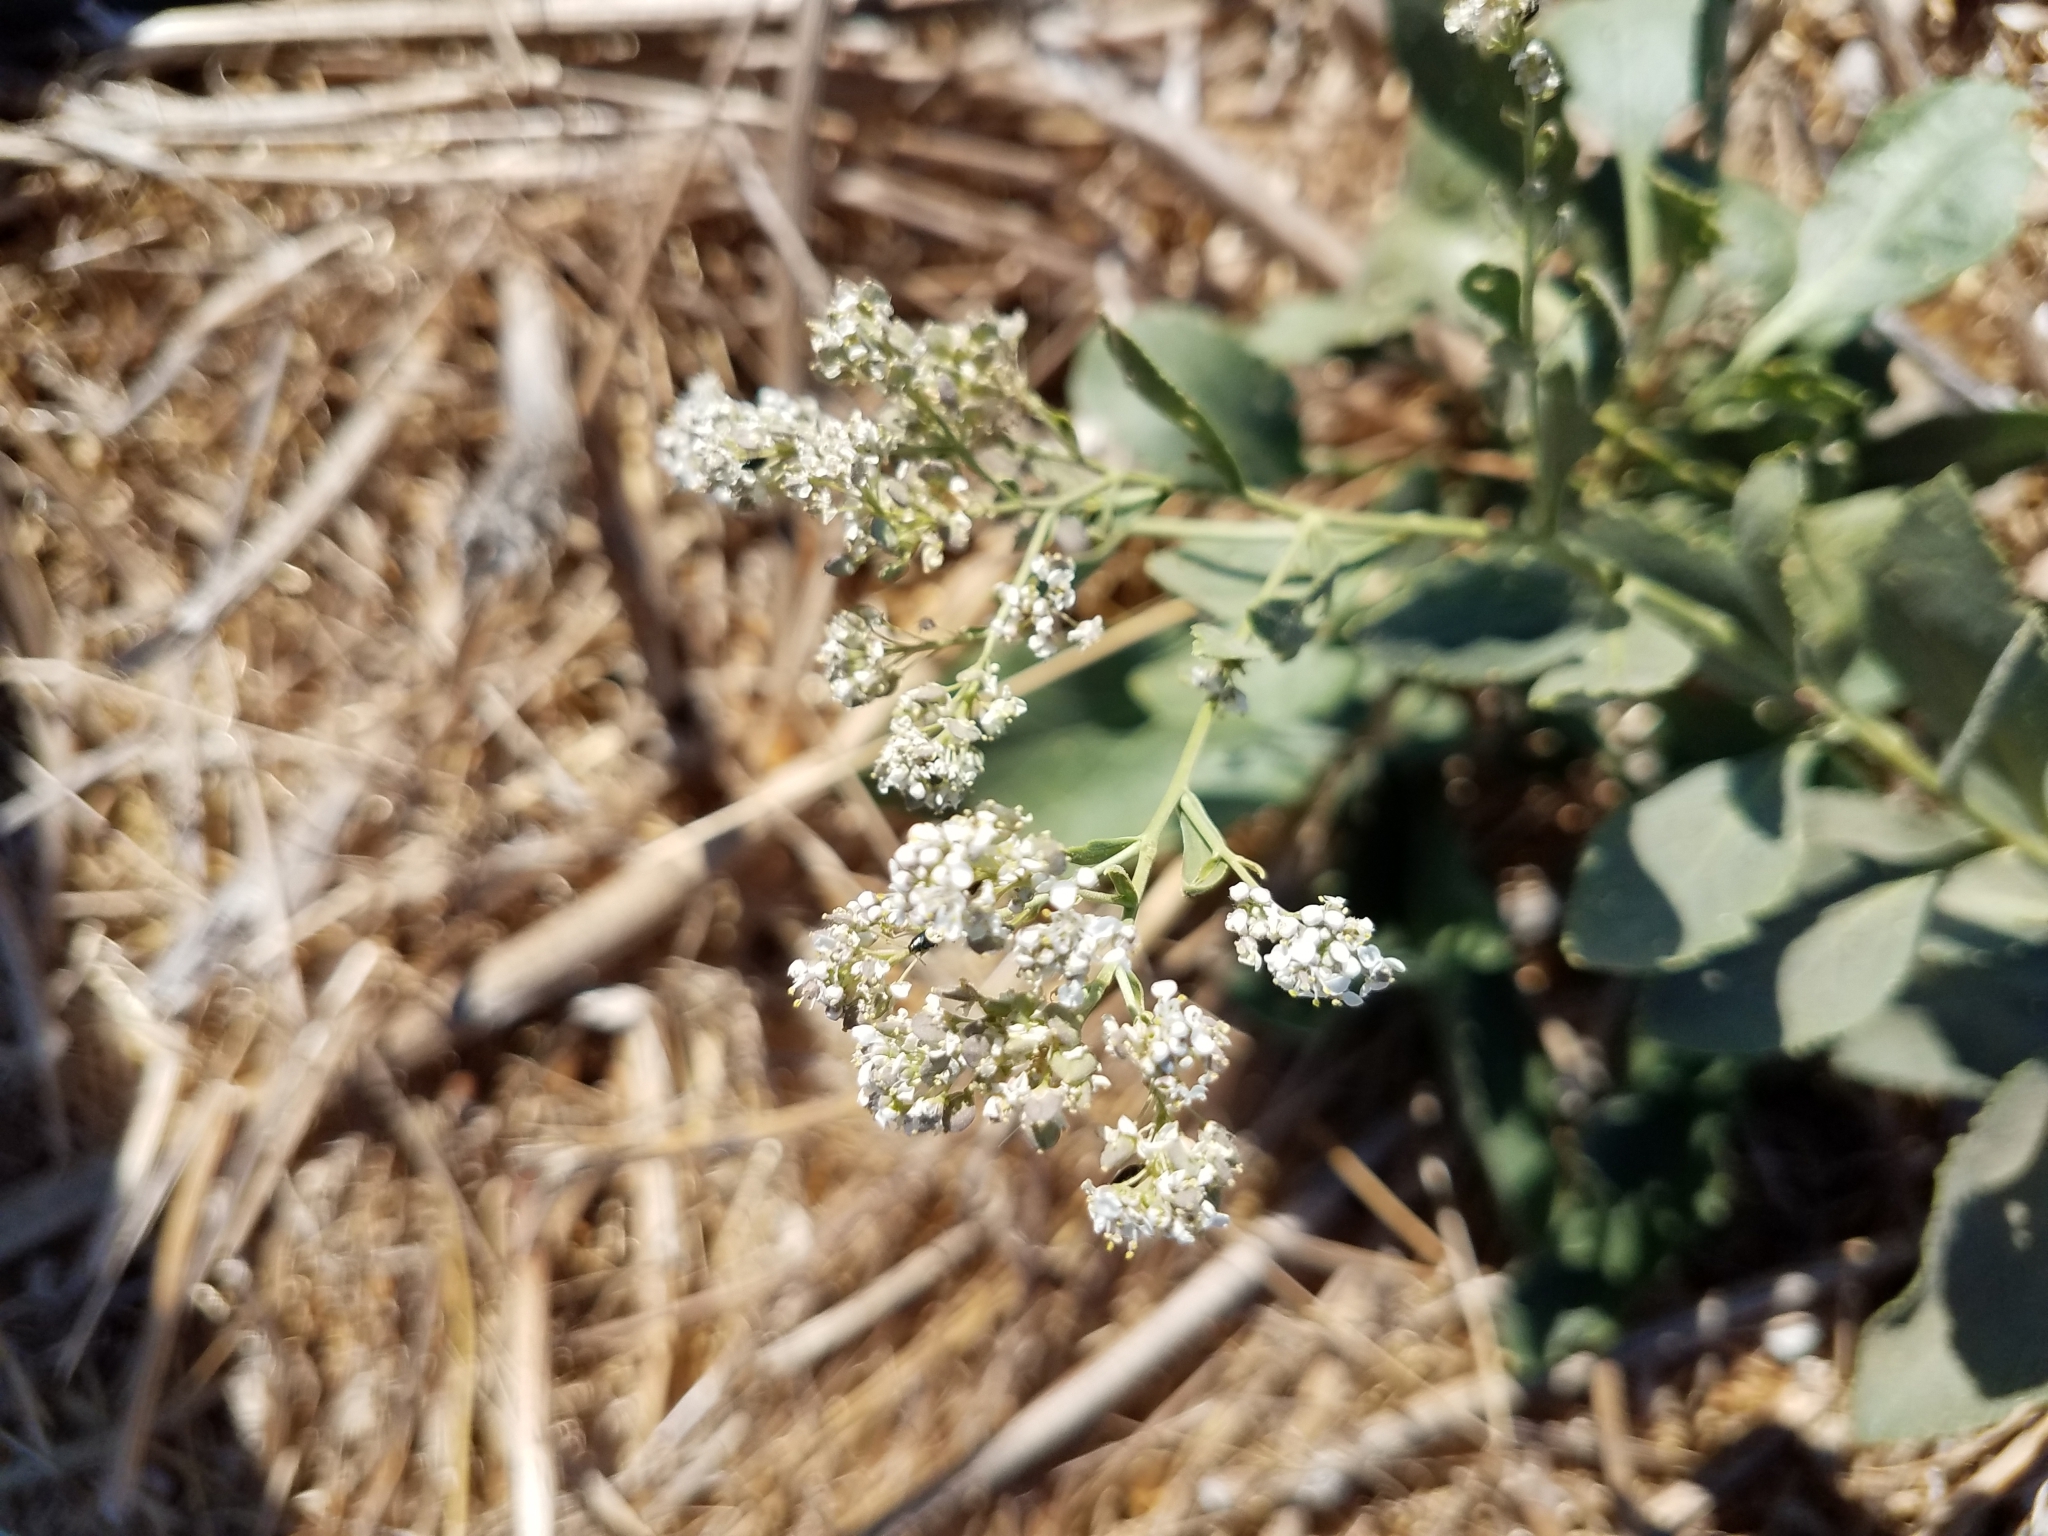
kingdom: Plantae
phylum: Tracheophyta
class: Magnoliopsida
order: Brassicales
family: Brassicaceae
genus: Lepidium
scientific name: Lepidium latifolium
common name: Dittander
